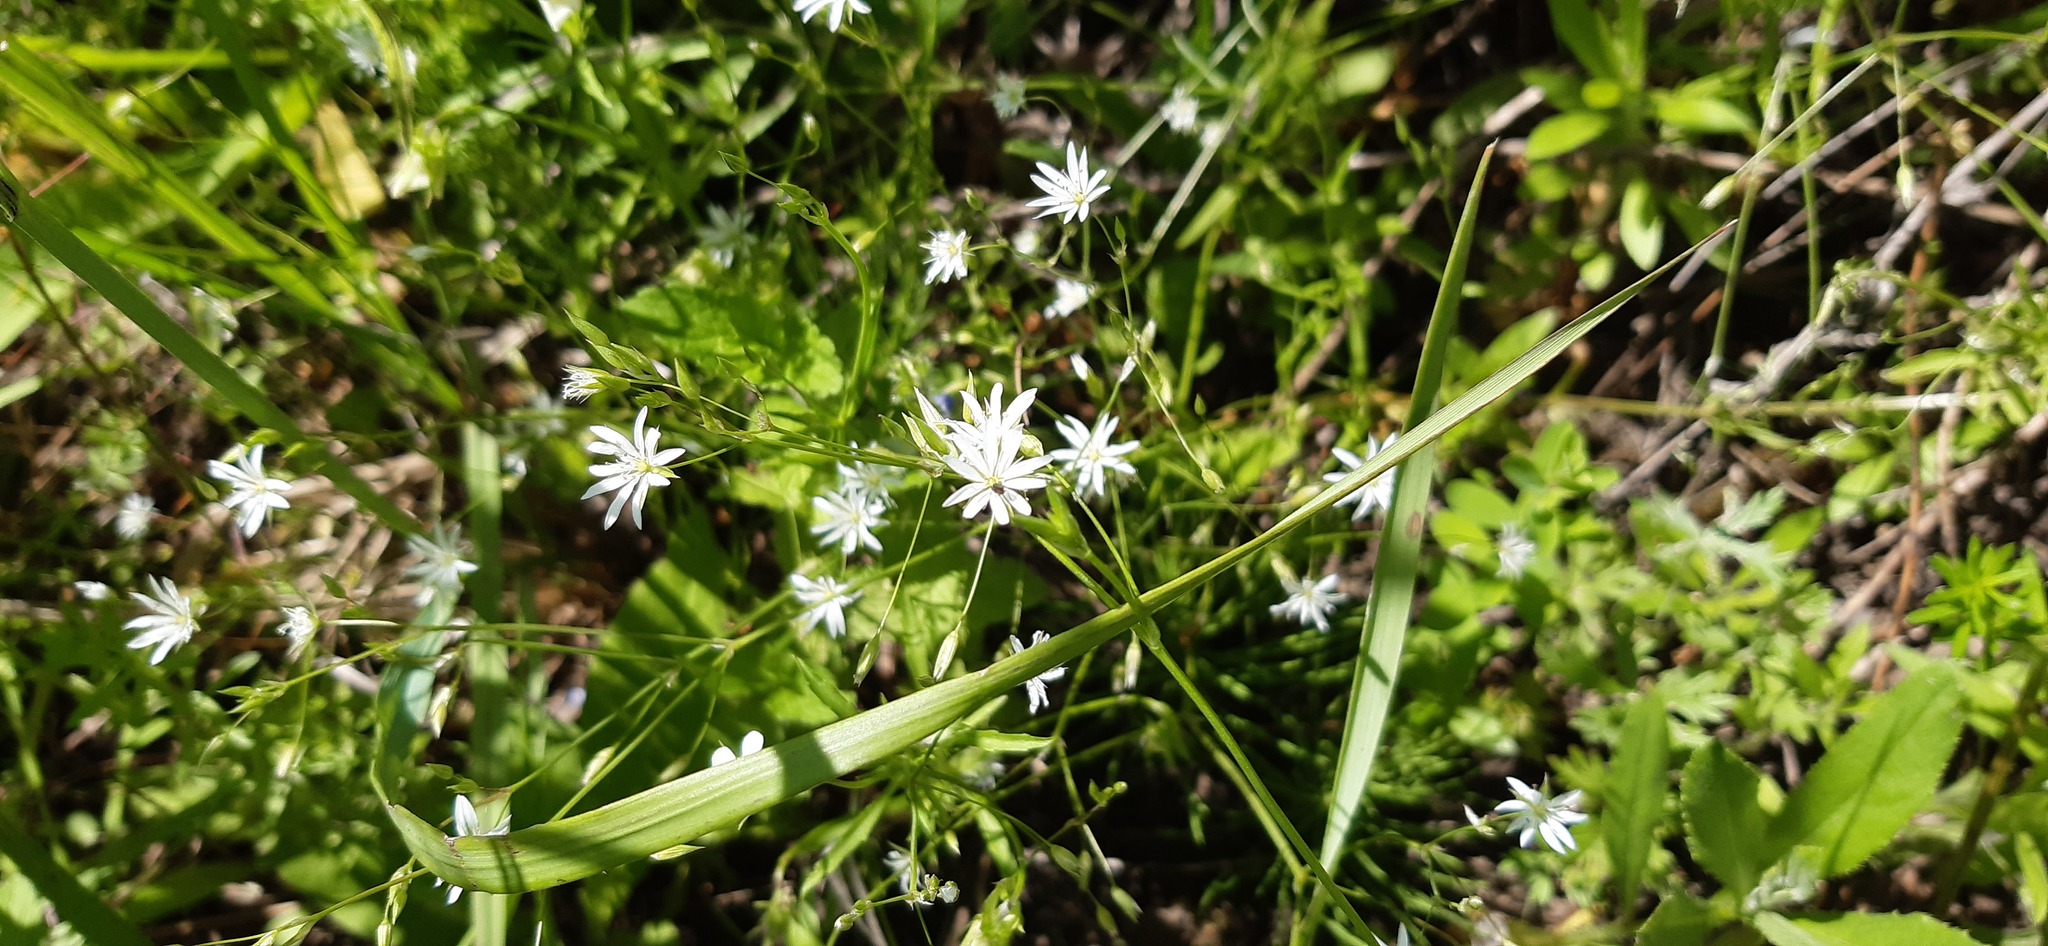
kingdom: Plantae
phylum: Tracheophyta
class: Magnoliopsida
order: Caryophyllales
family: Caryophyllaceae
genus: Stellaria
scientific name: Stellaria graminea
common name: Grass-like starwort
